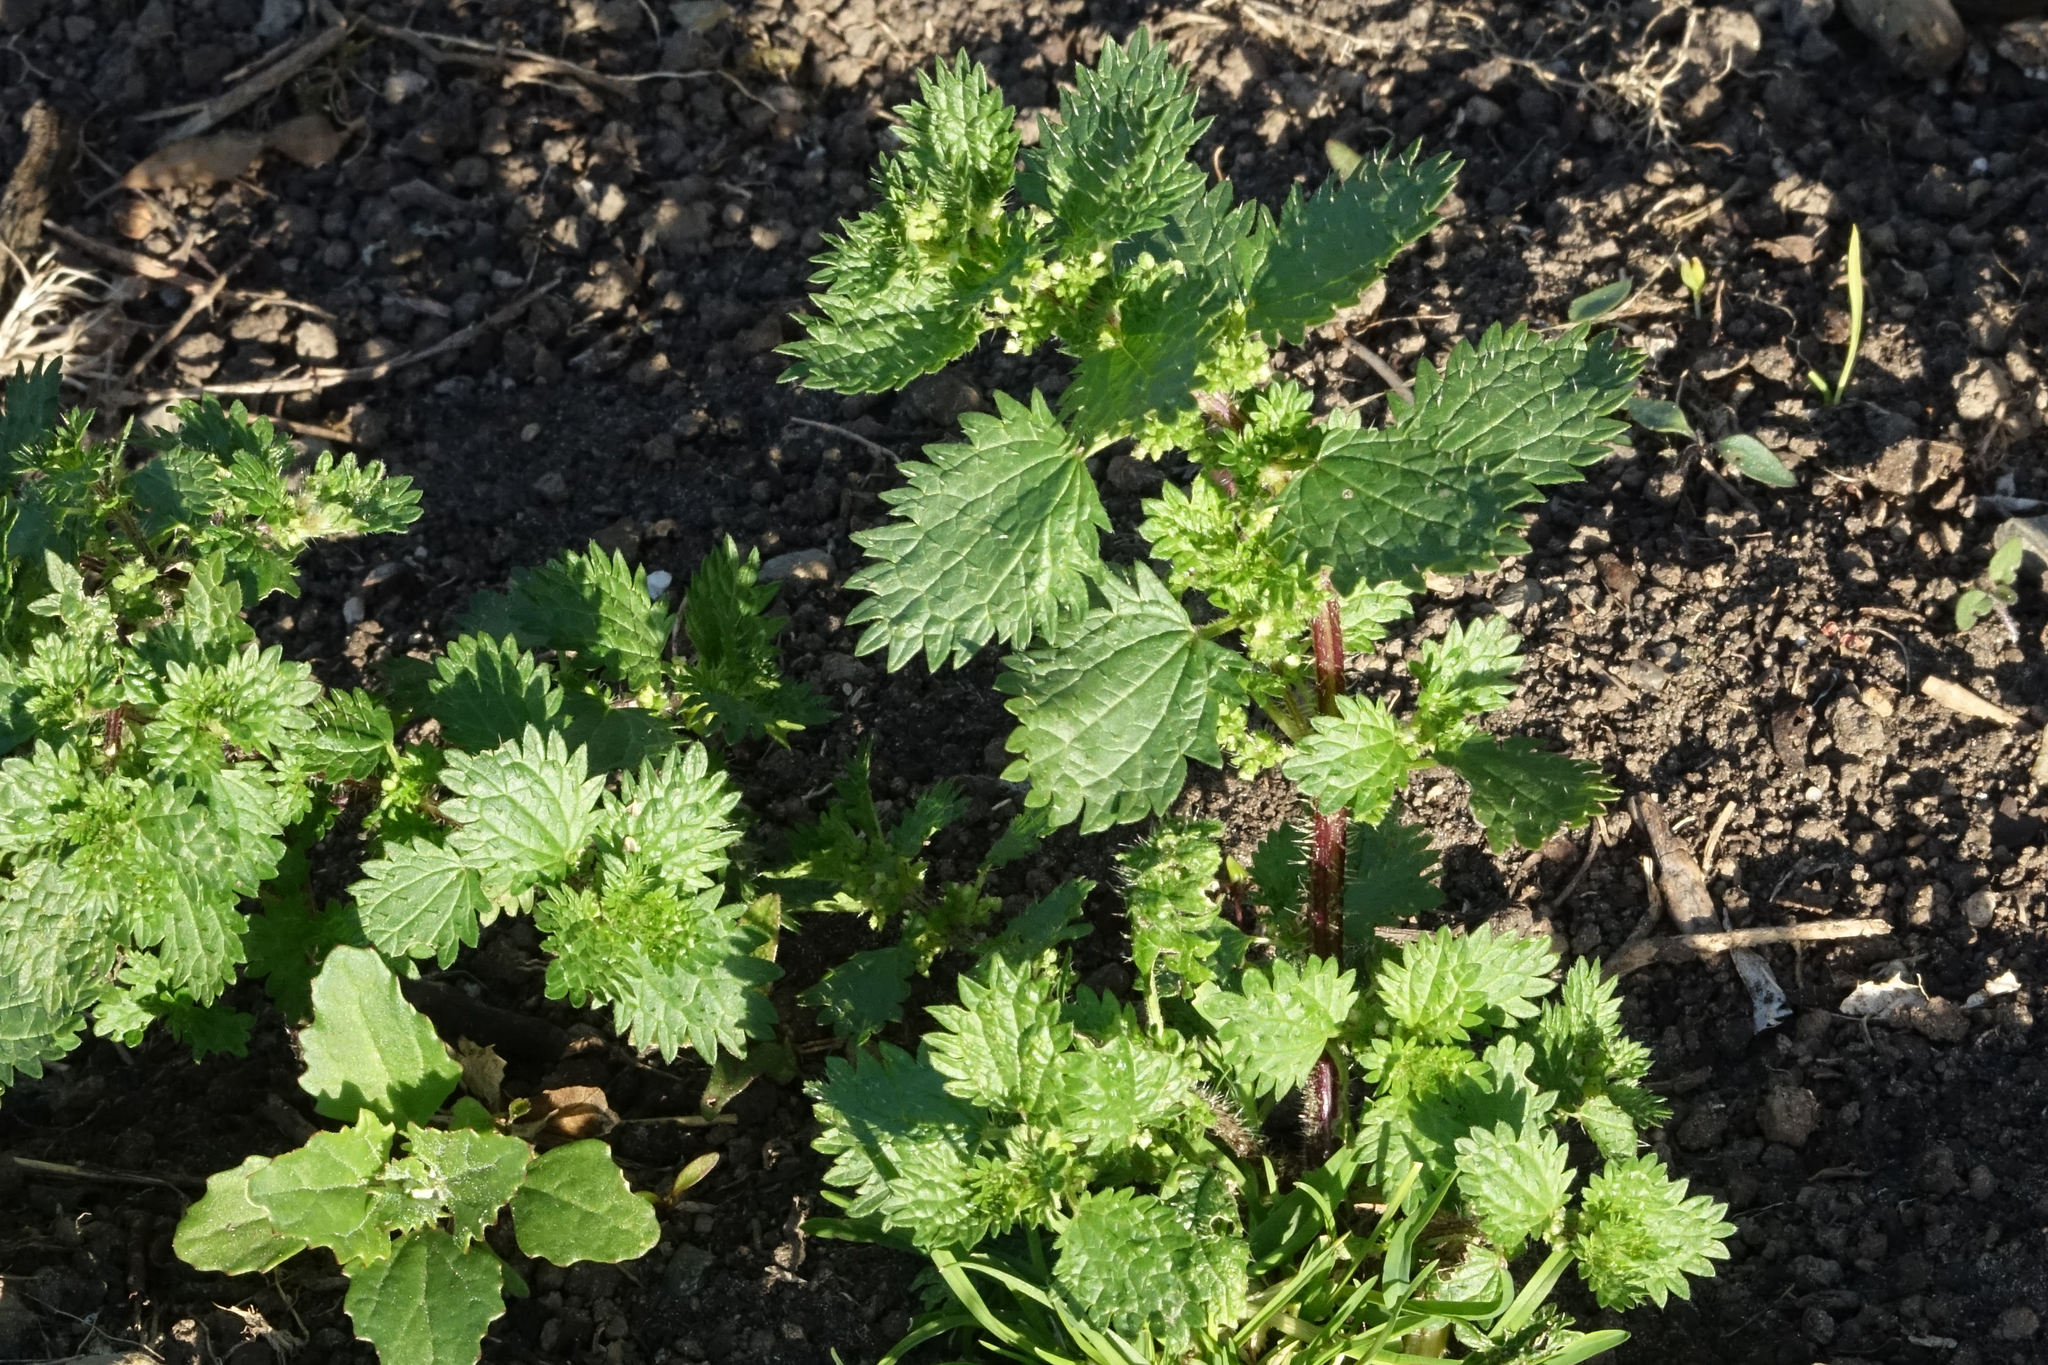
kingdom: Plantae
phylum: Tracheophyta
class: Magnoliopsida
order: Rosales
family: Urticaceae
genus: Urtica
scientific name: Urtica urens
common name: Dwarf nettle
